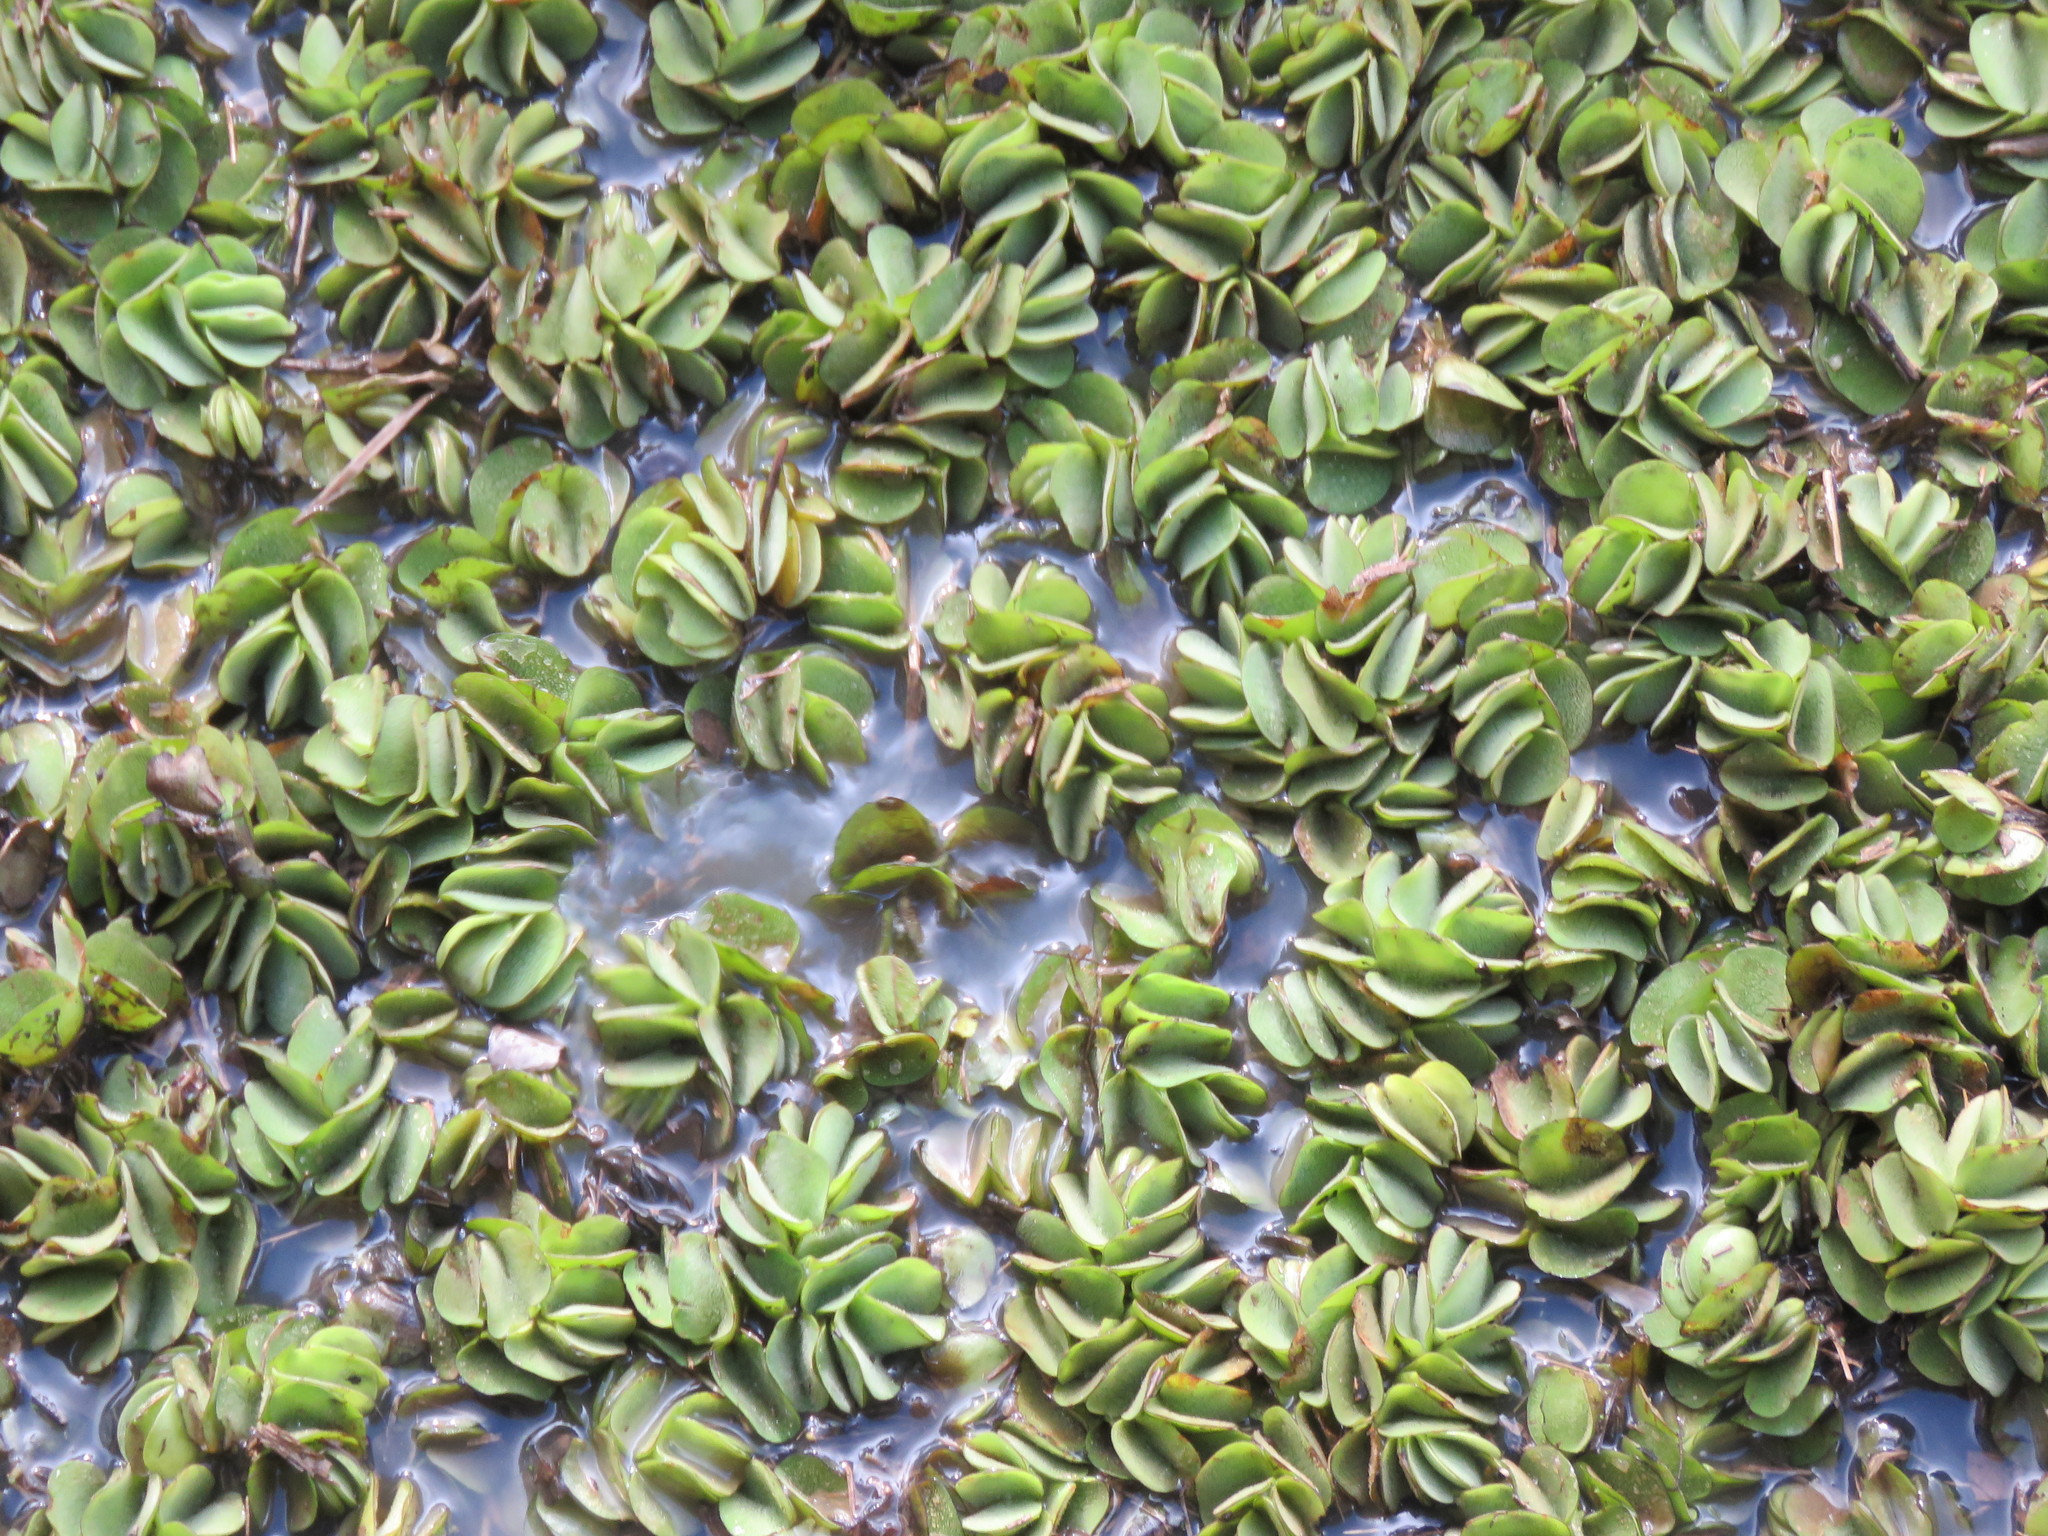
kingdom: Plantae
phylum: Tracheophyta
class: Polypodiopsida
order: Salviniales
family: Salviniaceae
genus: Salvinia
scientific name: Salvinia molesta
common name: Kariba weed
